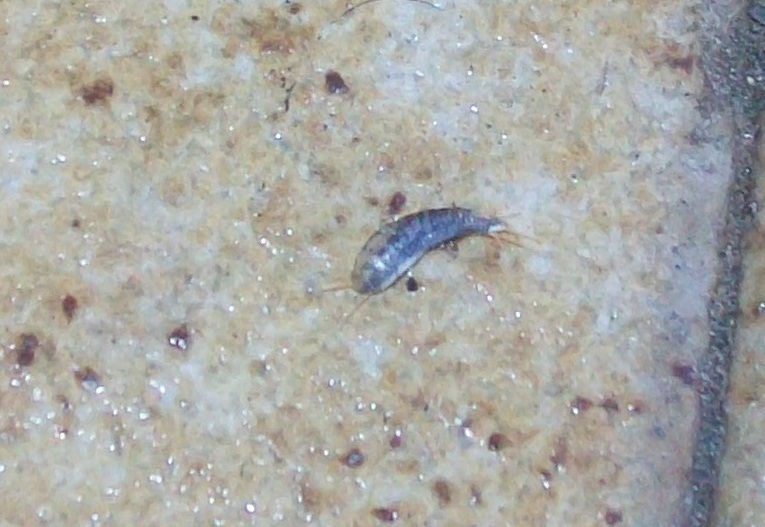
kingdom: Animalia
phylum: Arthropoda
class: Insecta
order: Zygentoma
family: Lepismatidae
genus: Lepisma
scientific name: Lepisma saccharinum
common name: Silverfish
